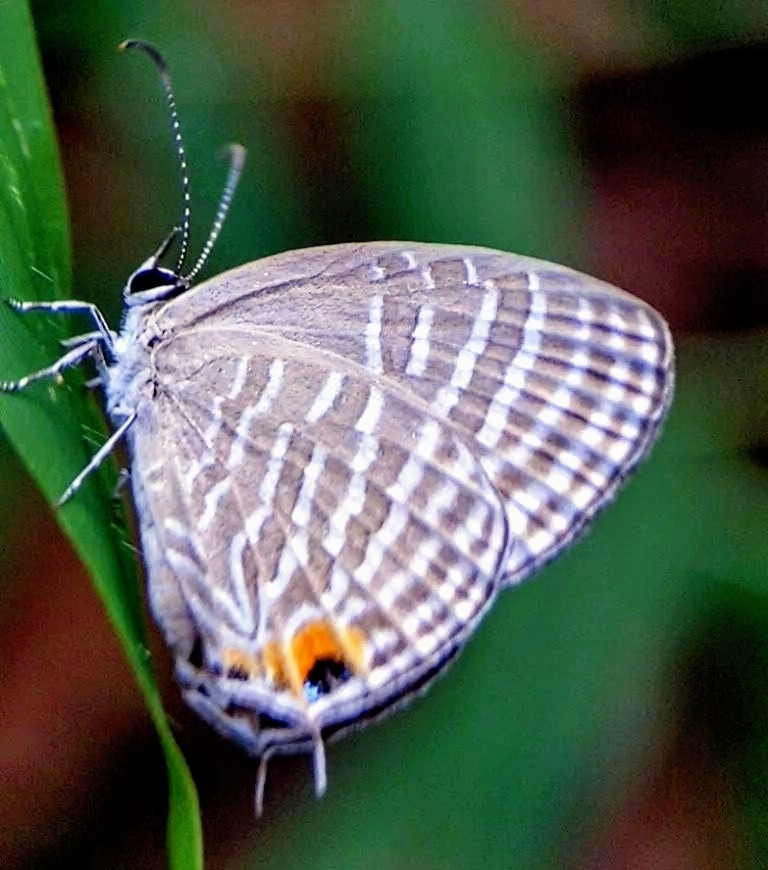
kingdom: Animalia
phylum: Arthropoda
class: Insecta
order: Lepidoptera
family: Lycaenidae
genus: Jamides
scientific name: Jamides celeno
